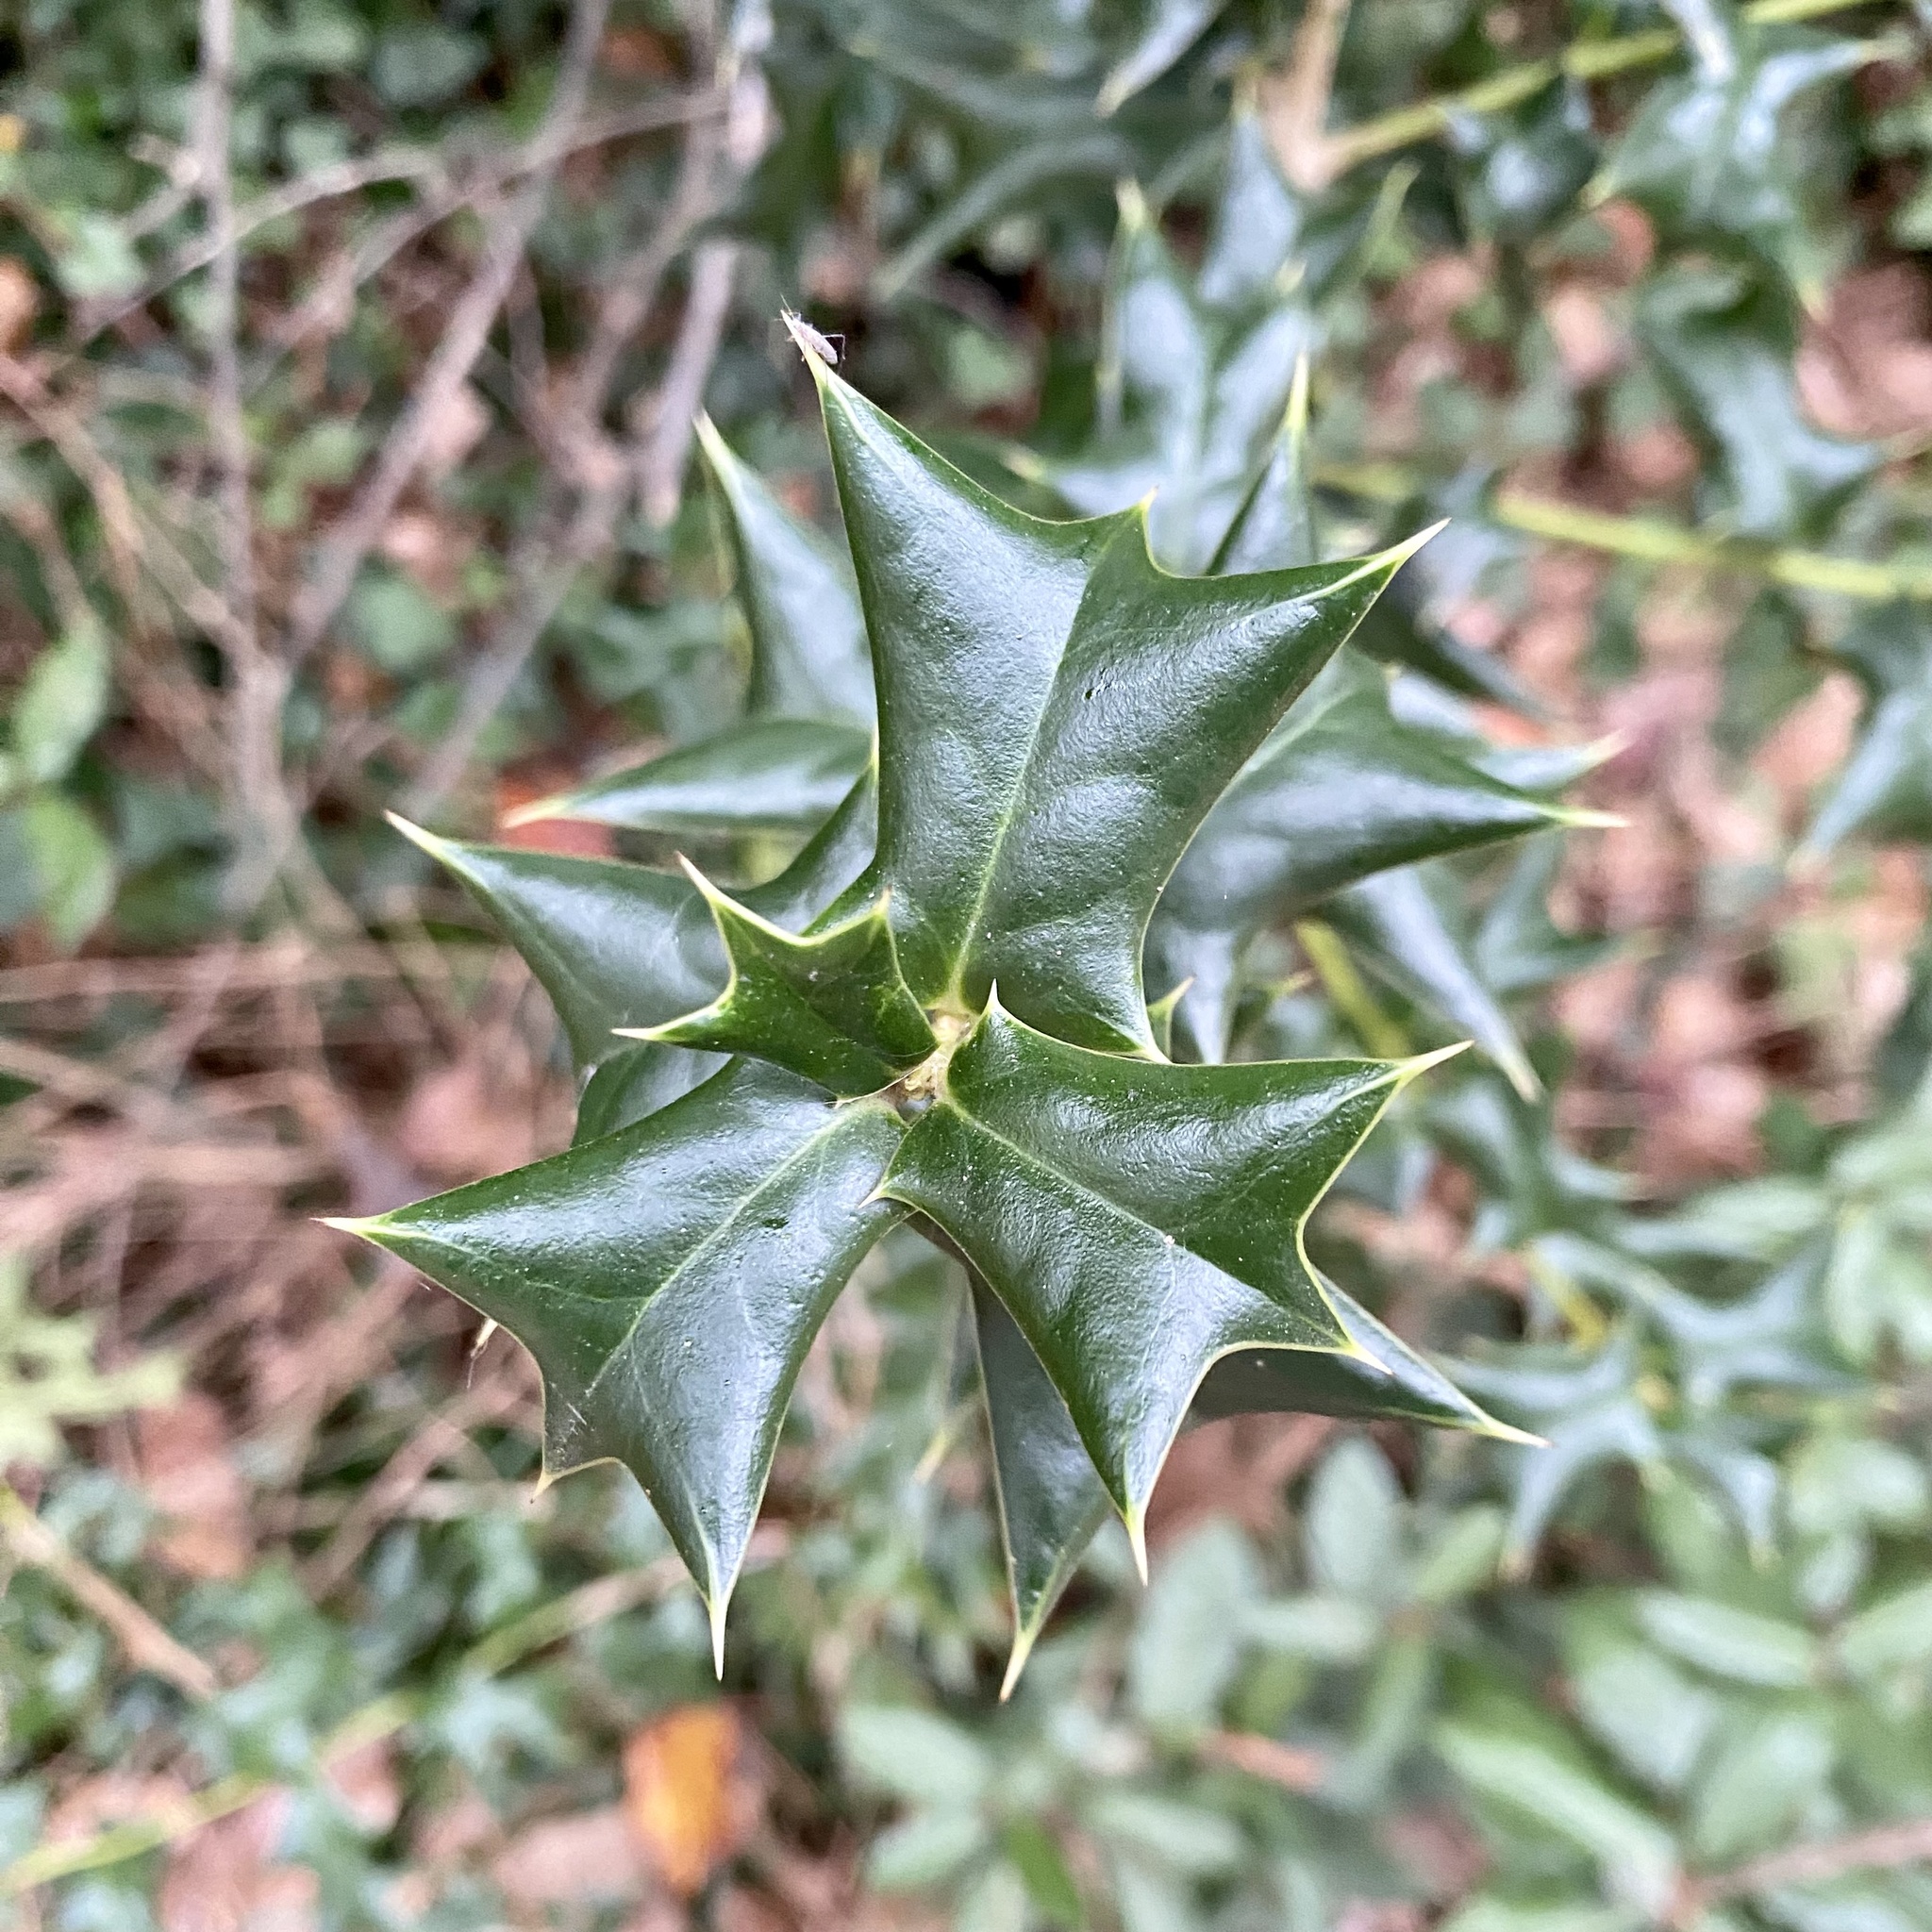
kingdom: Plantae
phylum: Tracheophyta
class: Magnoliopsida
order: Aquifoliales
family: Aquifoliaceae
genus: Ilex
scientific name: Ilex cornuta
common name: Chinese holly
